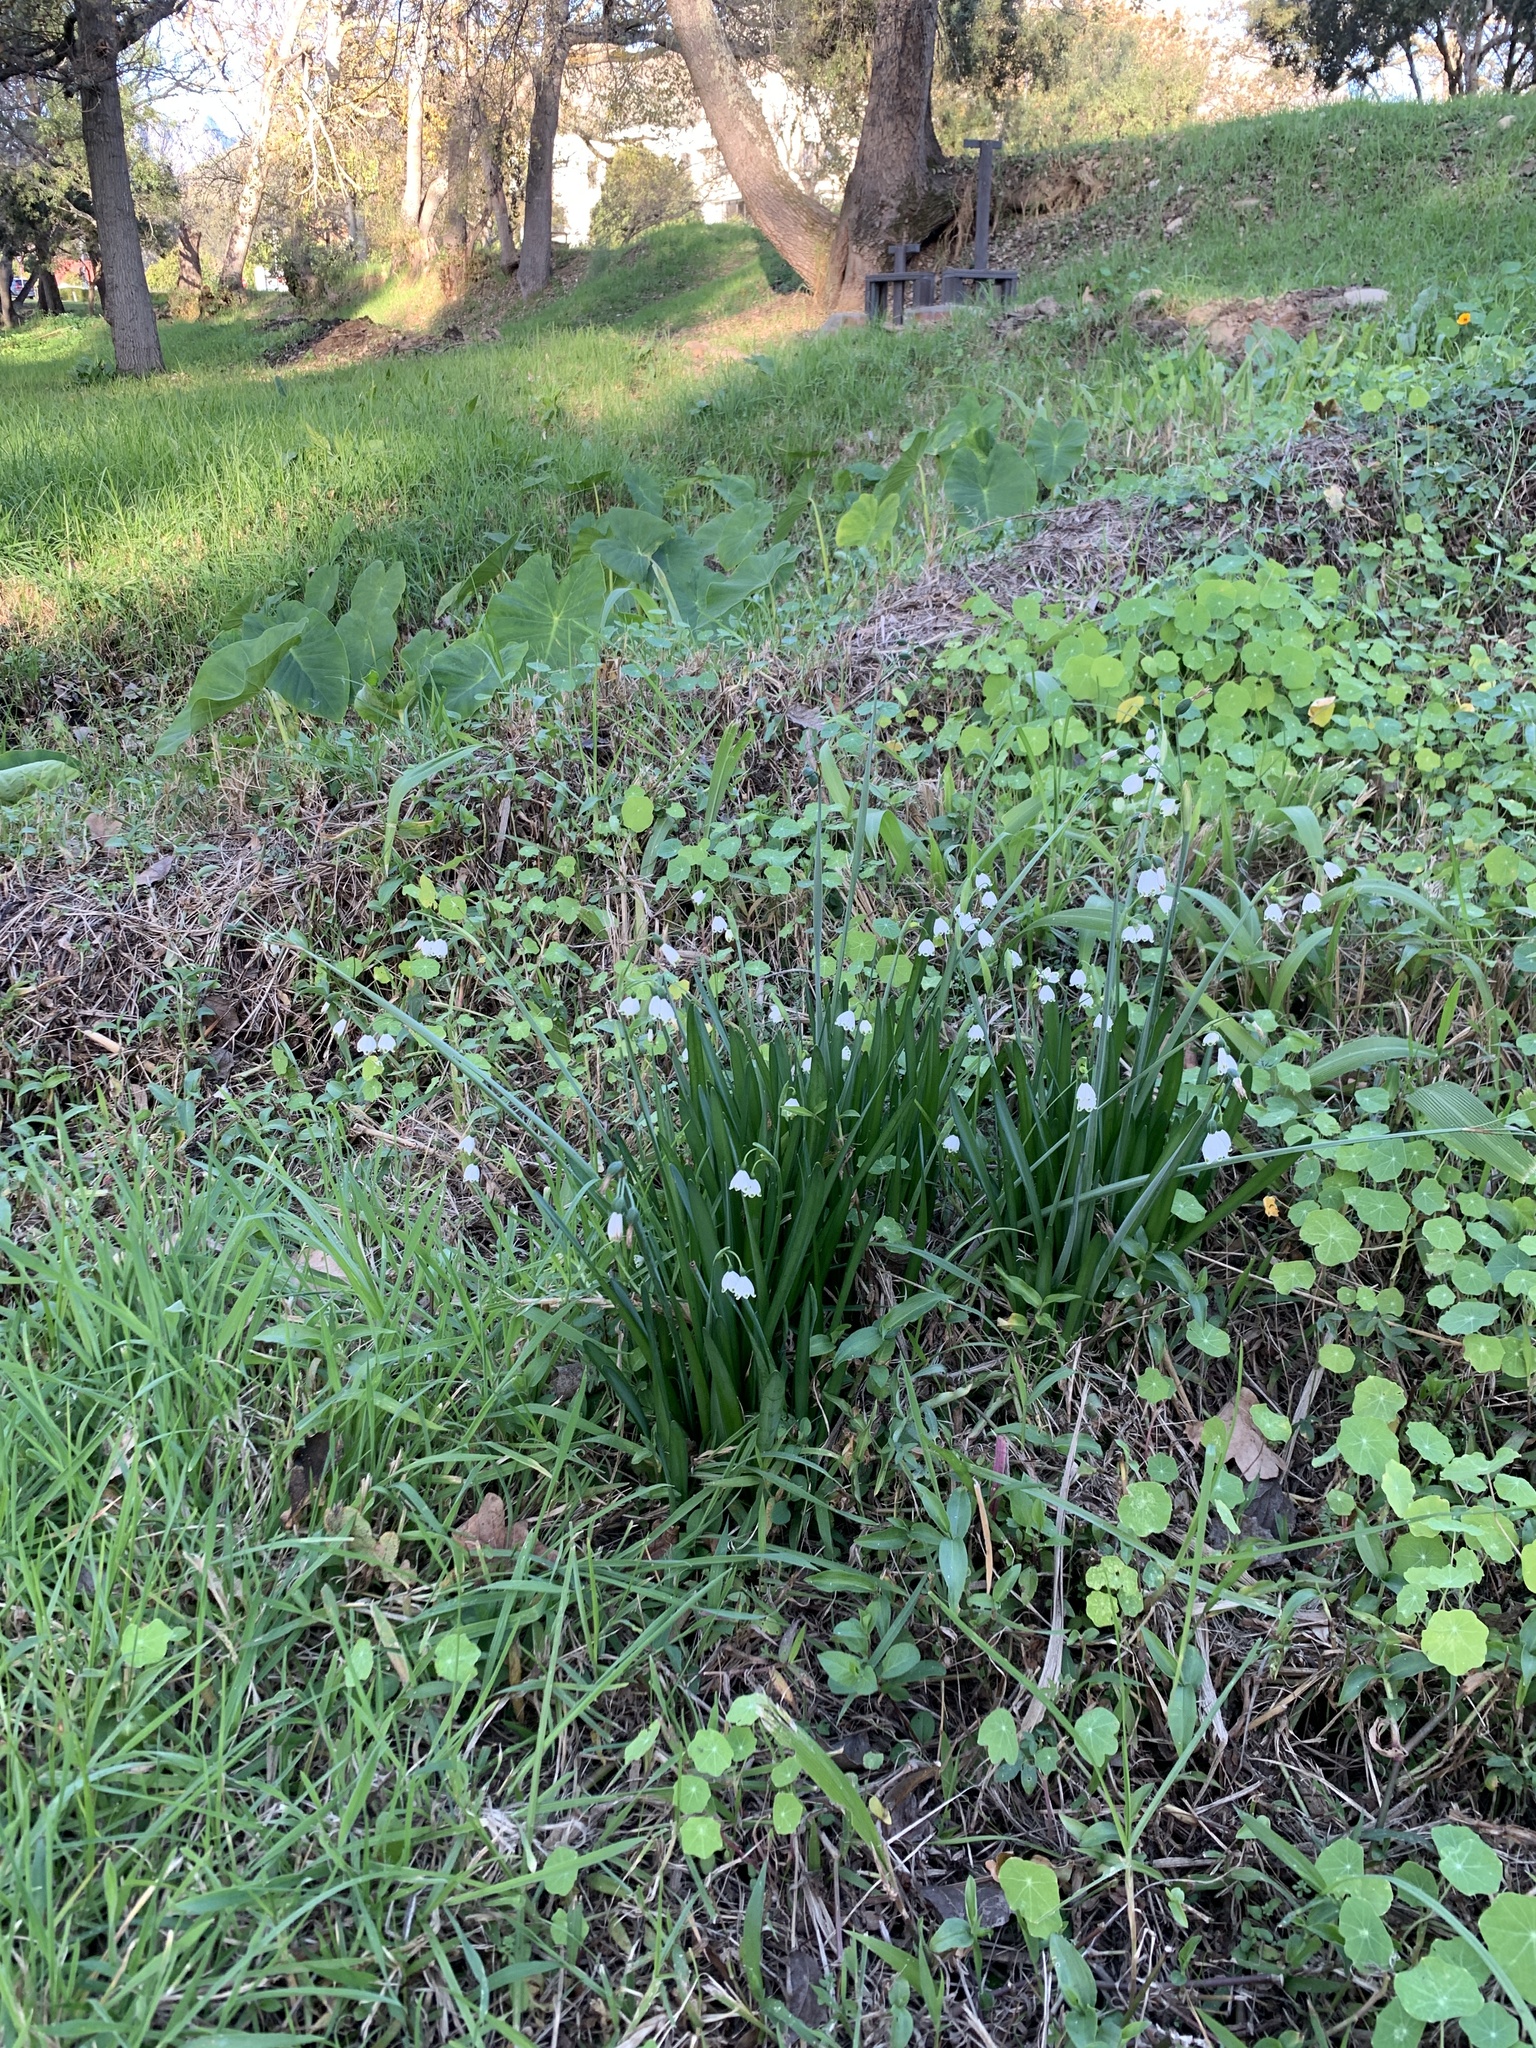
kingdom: Plantae
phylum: Tracheophyta
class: Liliopsida
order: Asparagales
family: Amaryllidaceae
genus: Leucojum
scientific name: Leucojum aestivum
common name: Summer snowflake
